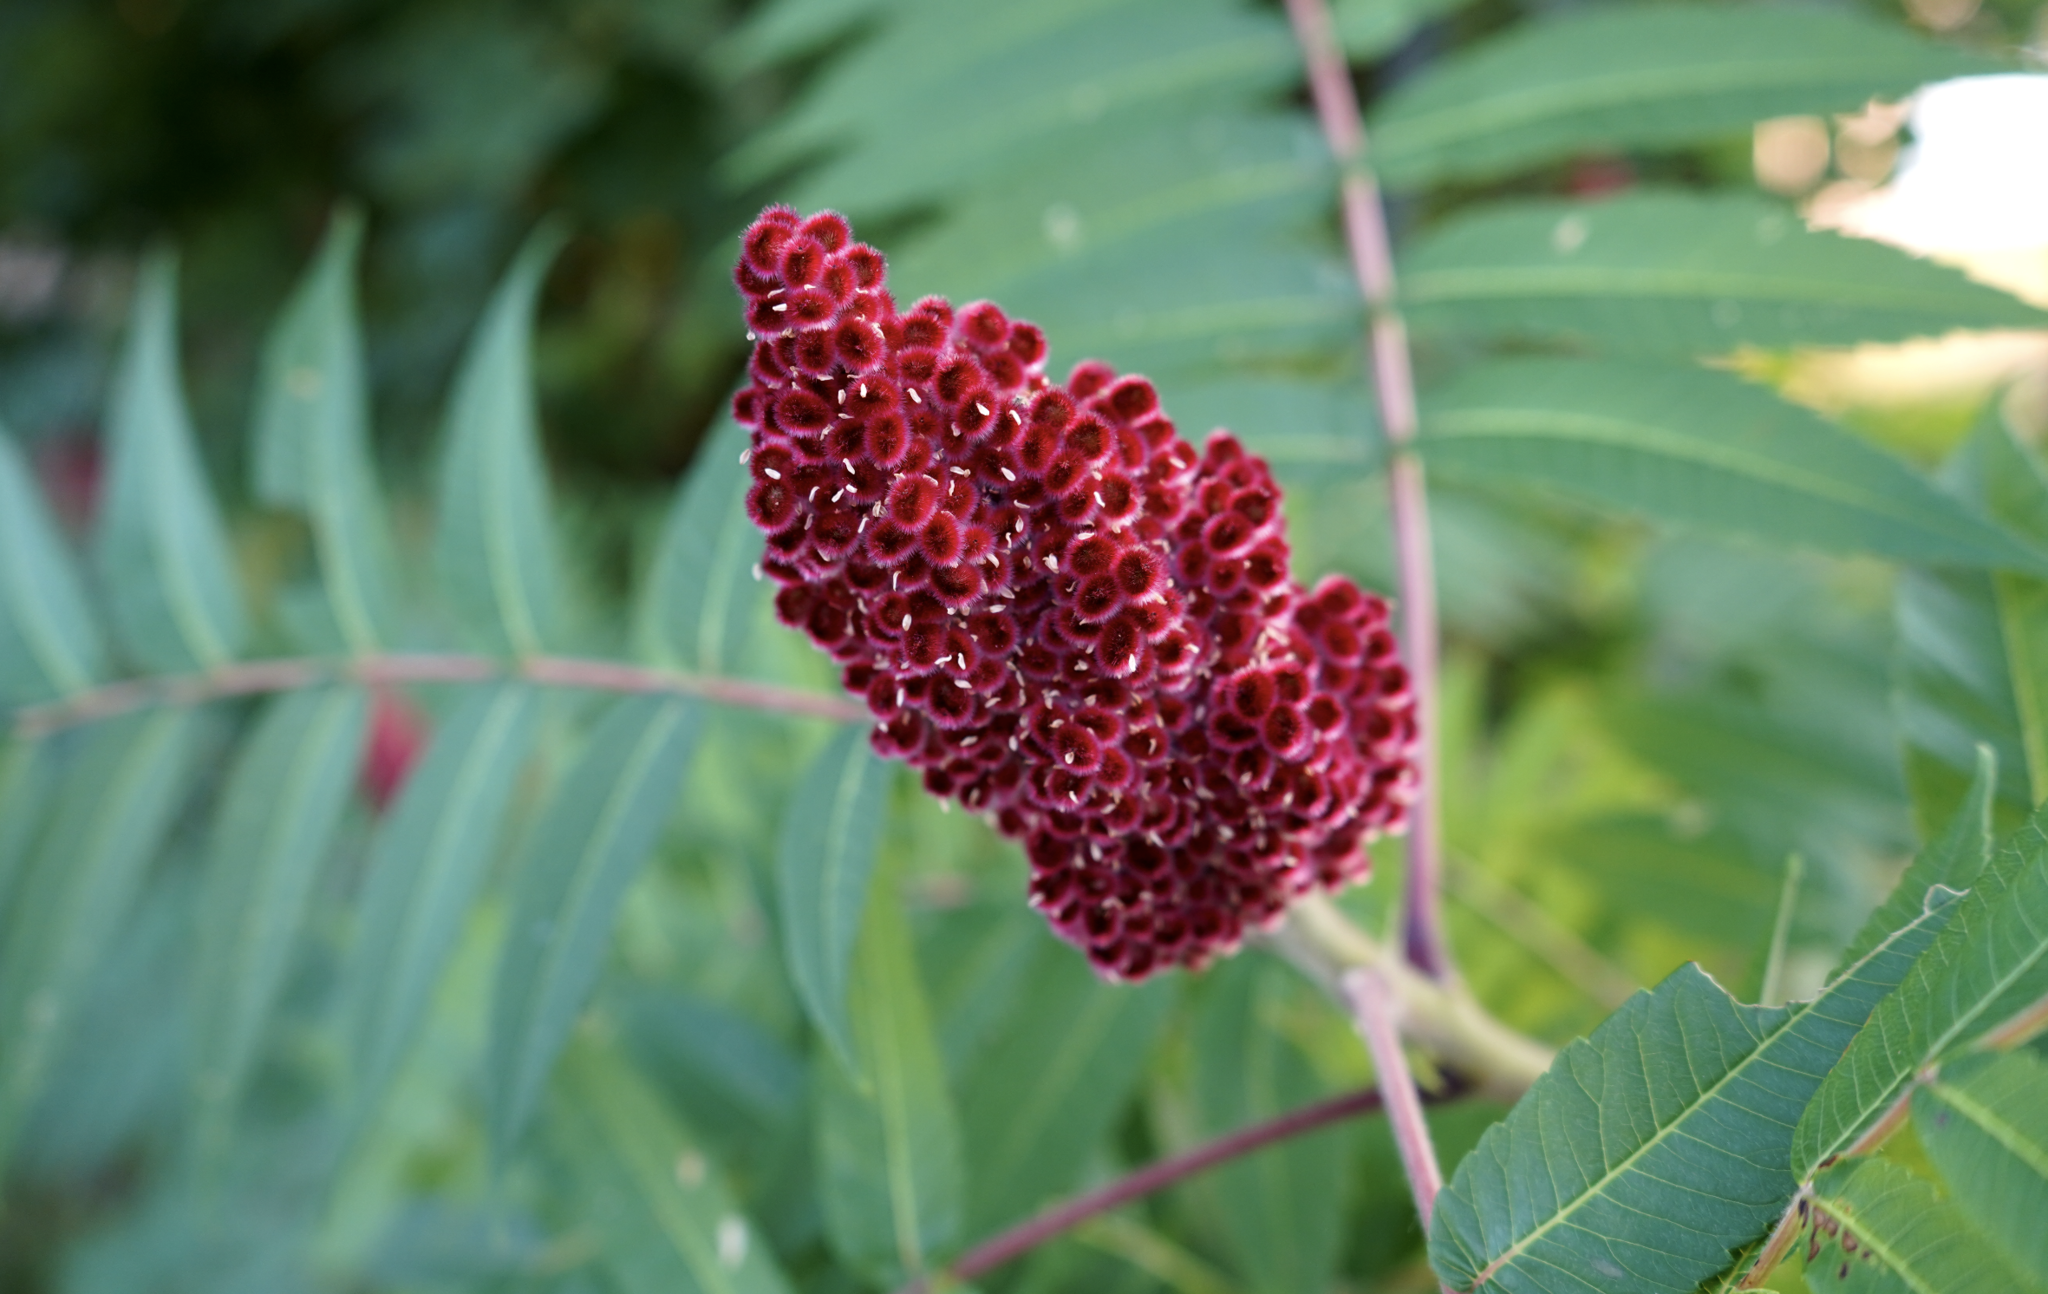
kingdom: Plantae
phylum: Tracheophyta
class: Magnoliopsida
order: Sapindales
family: Anacardiaceae
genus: Rhus
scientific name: Rhus typhina
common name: Staghorn sumac
